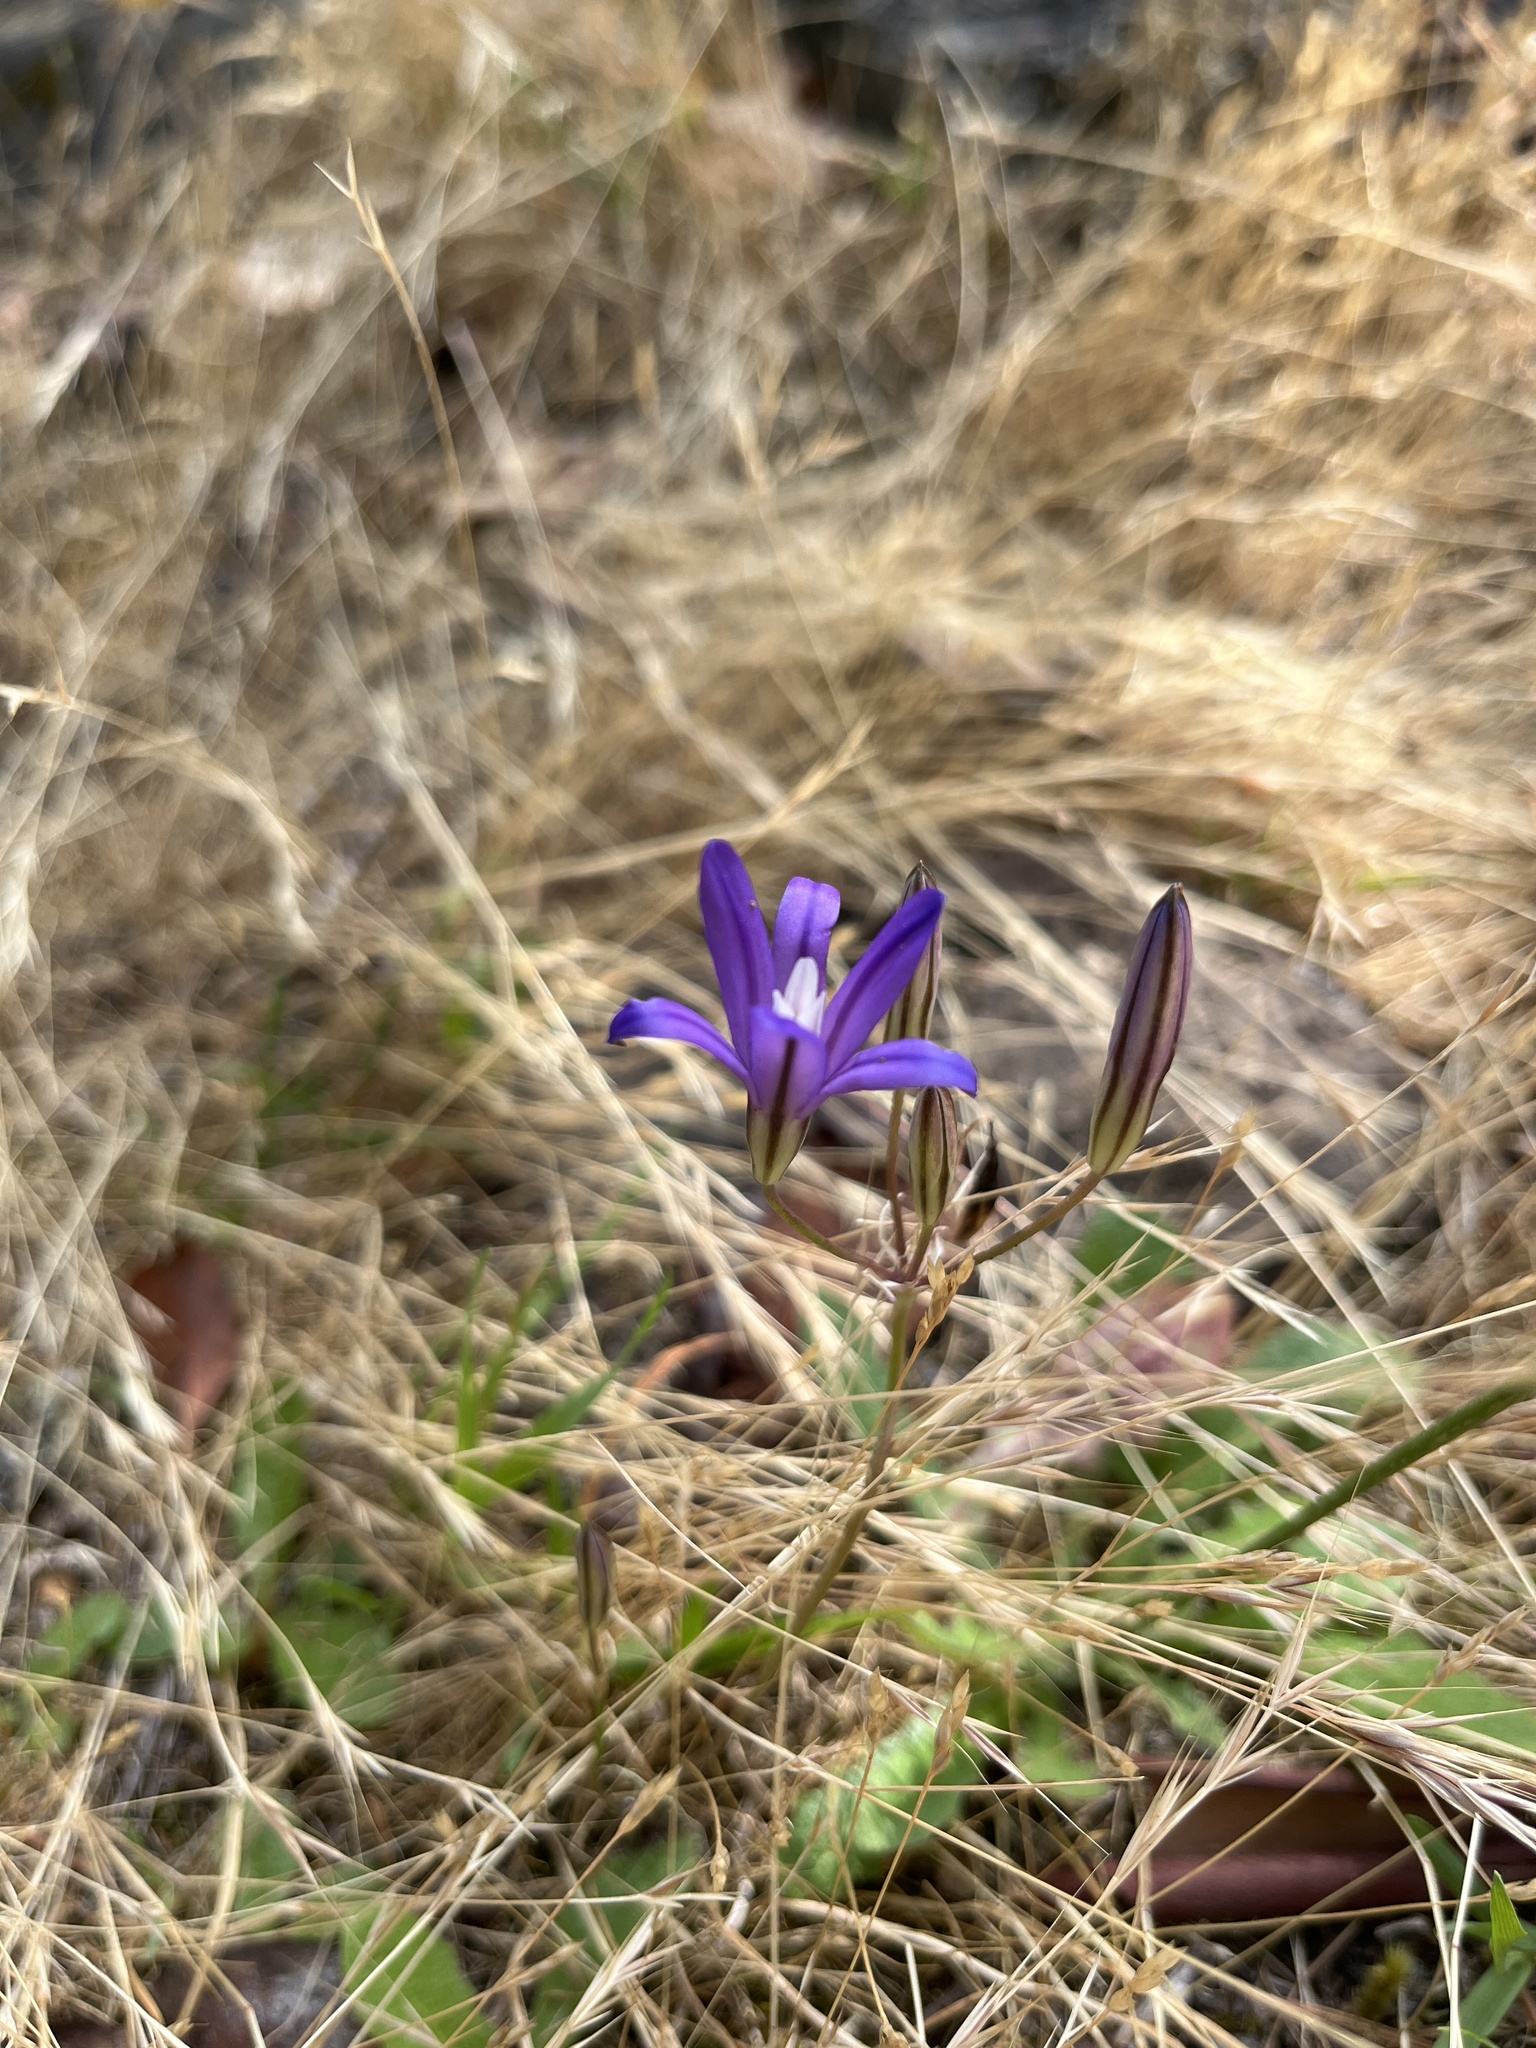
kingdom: Plantae
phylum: Tracheophyta
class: Liliopsida
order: Asparagales
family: Asparagaceae
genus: Brodiaea
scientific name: Brodiaea coronaria
